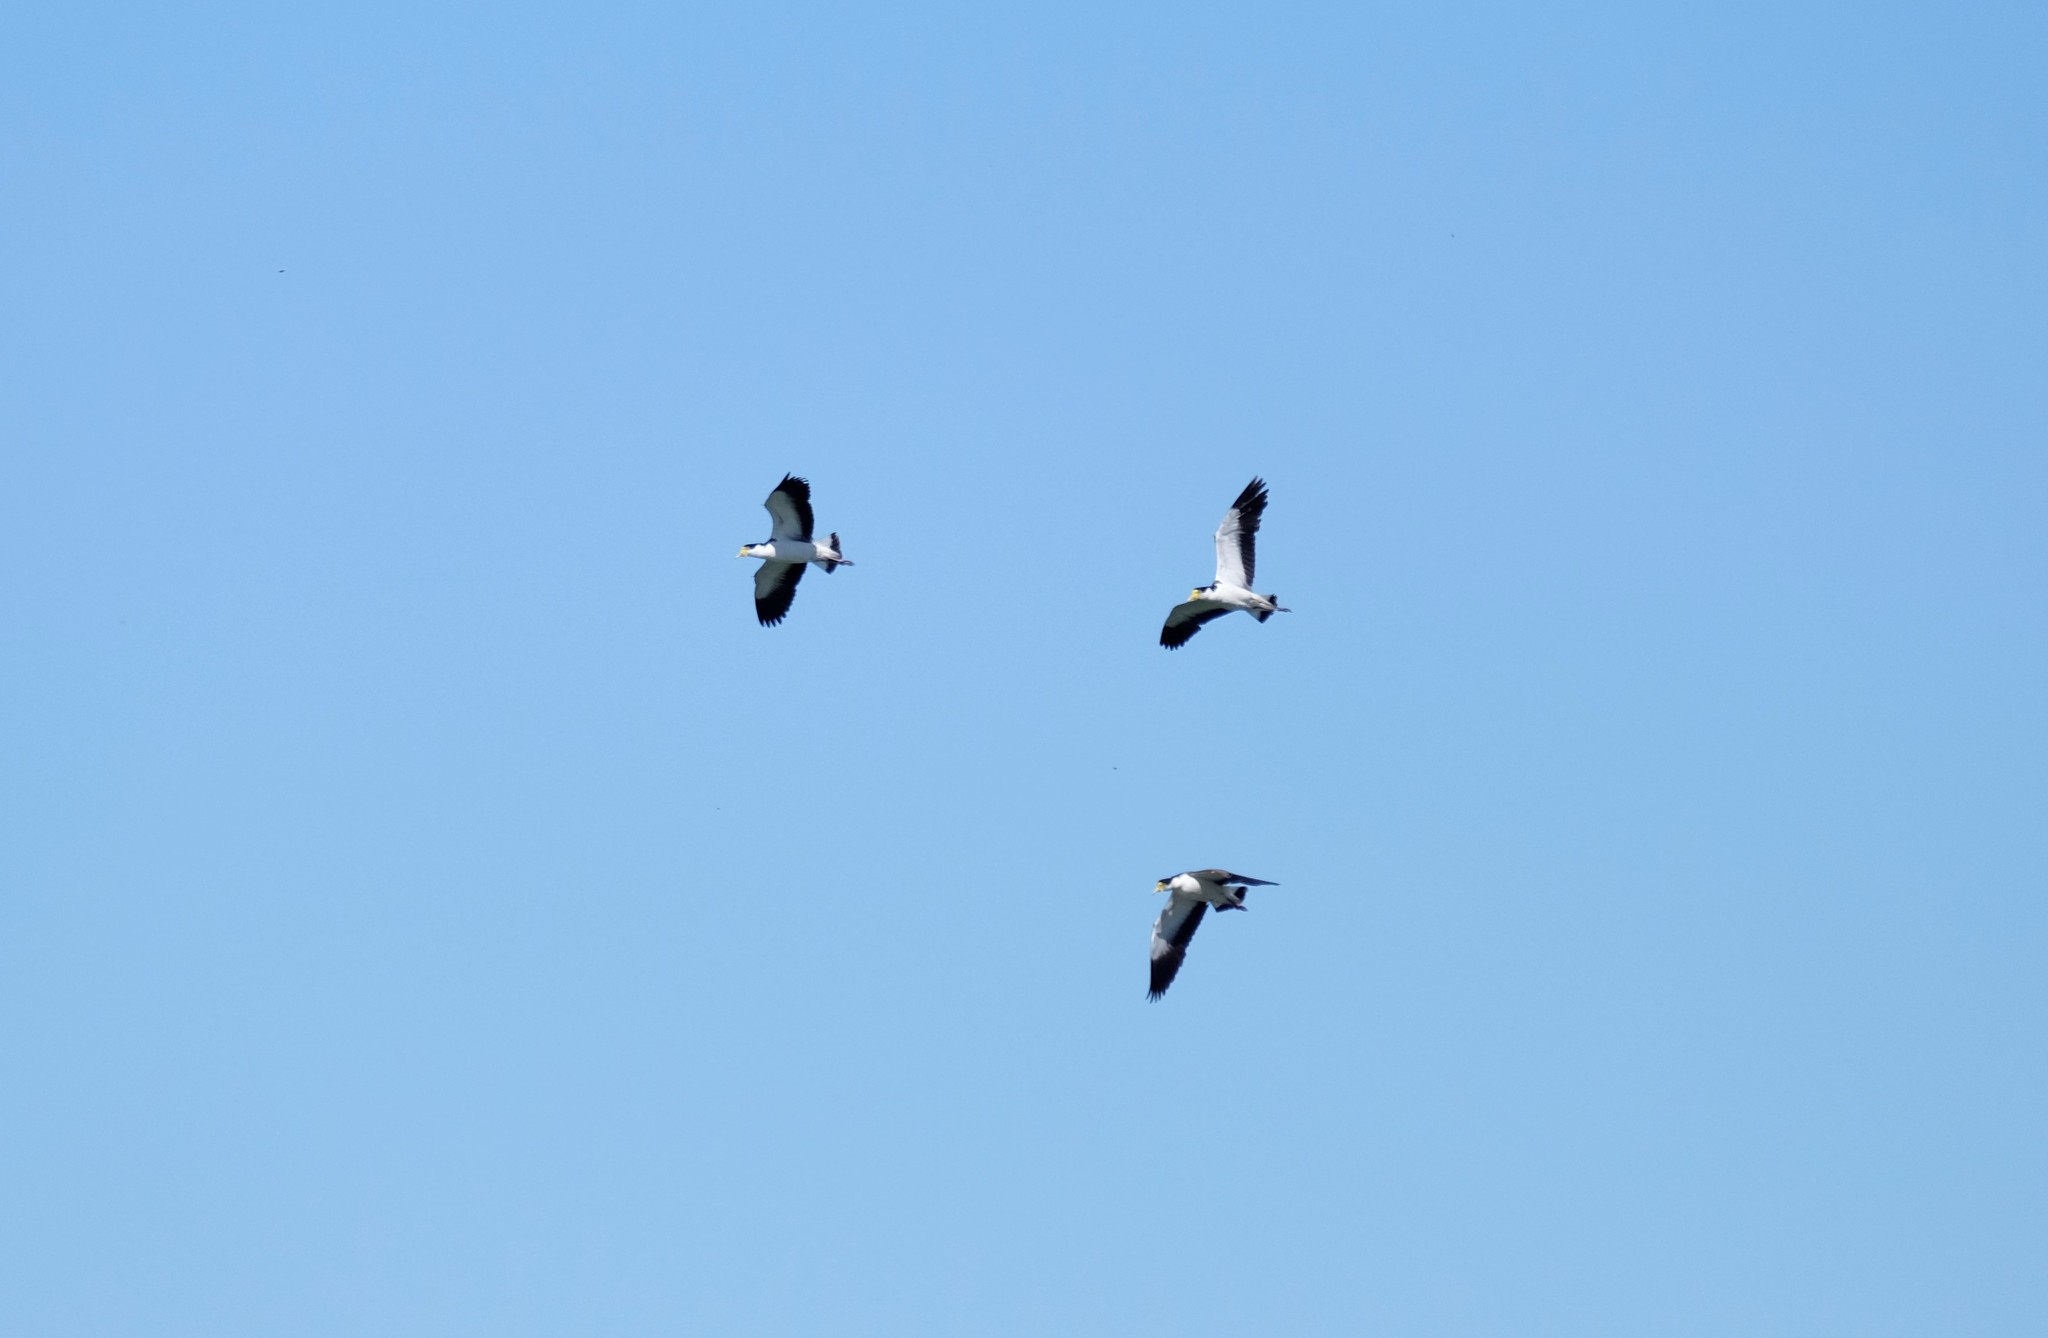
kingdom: Animalia
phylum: Chordata
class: Aves
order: Charadriiformes
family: Charadriidae
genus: Vanellus
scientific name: Vanellus miles
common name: Masked lapwing
